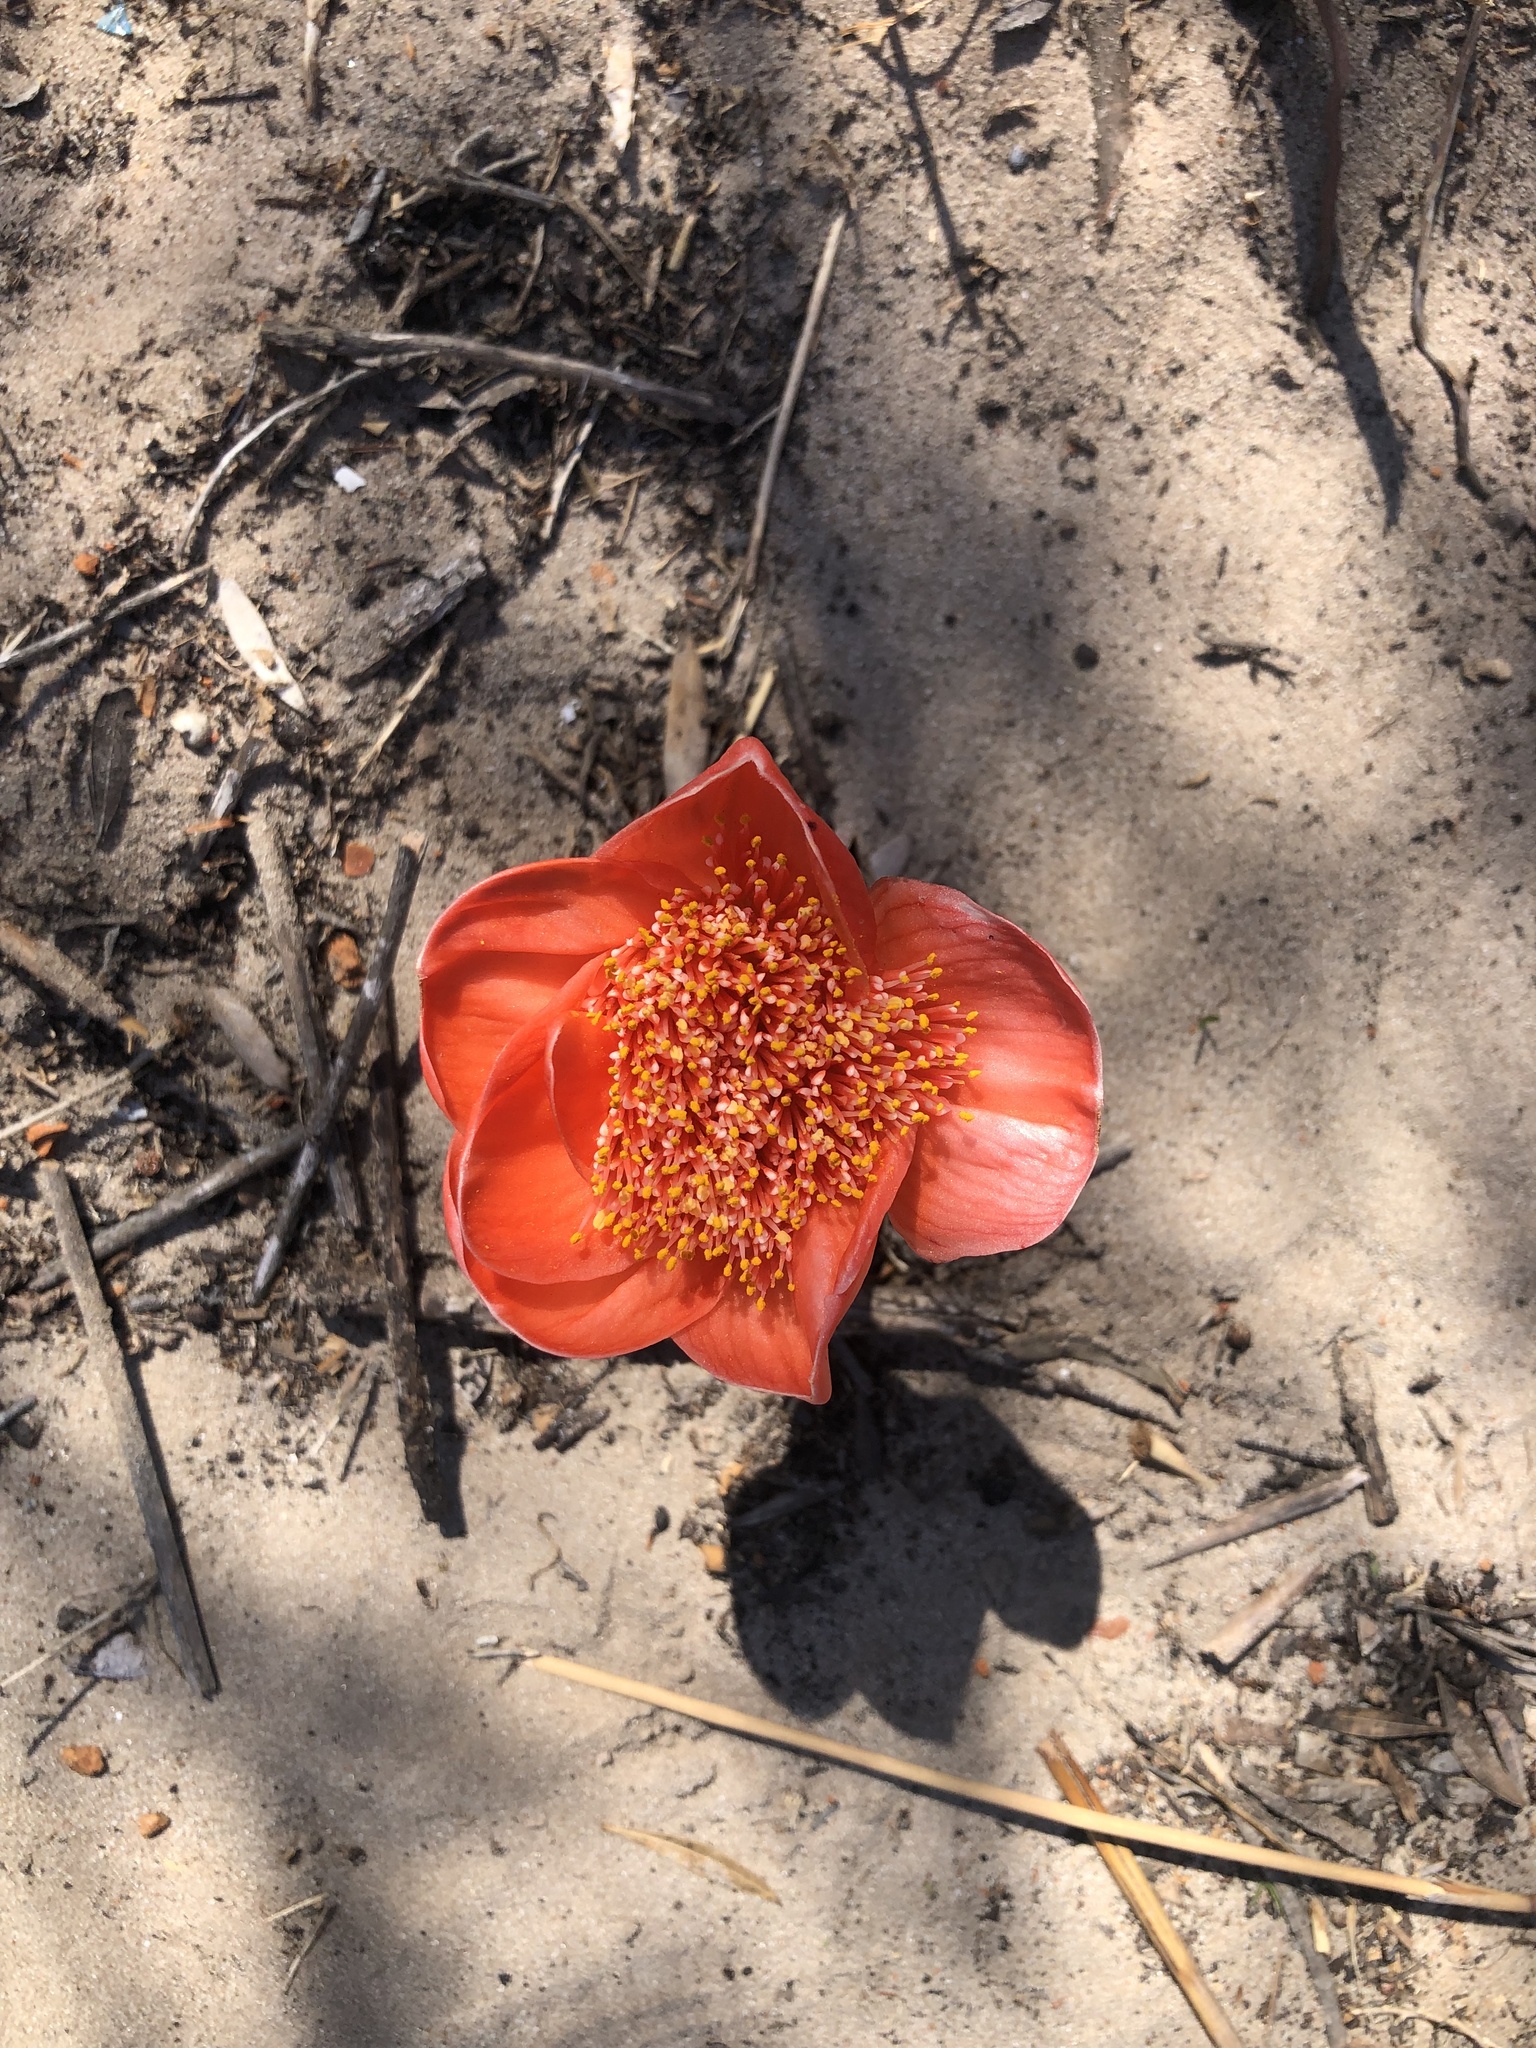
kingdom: Plantae
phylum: Tracheophyta
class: Liliopsida
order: Asparagales
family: Amaryllidaceae
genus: Haemanthus
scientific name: Haemanthus coccineus
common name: Cape-tulip
